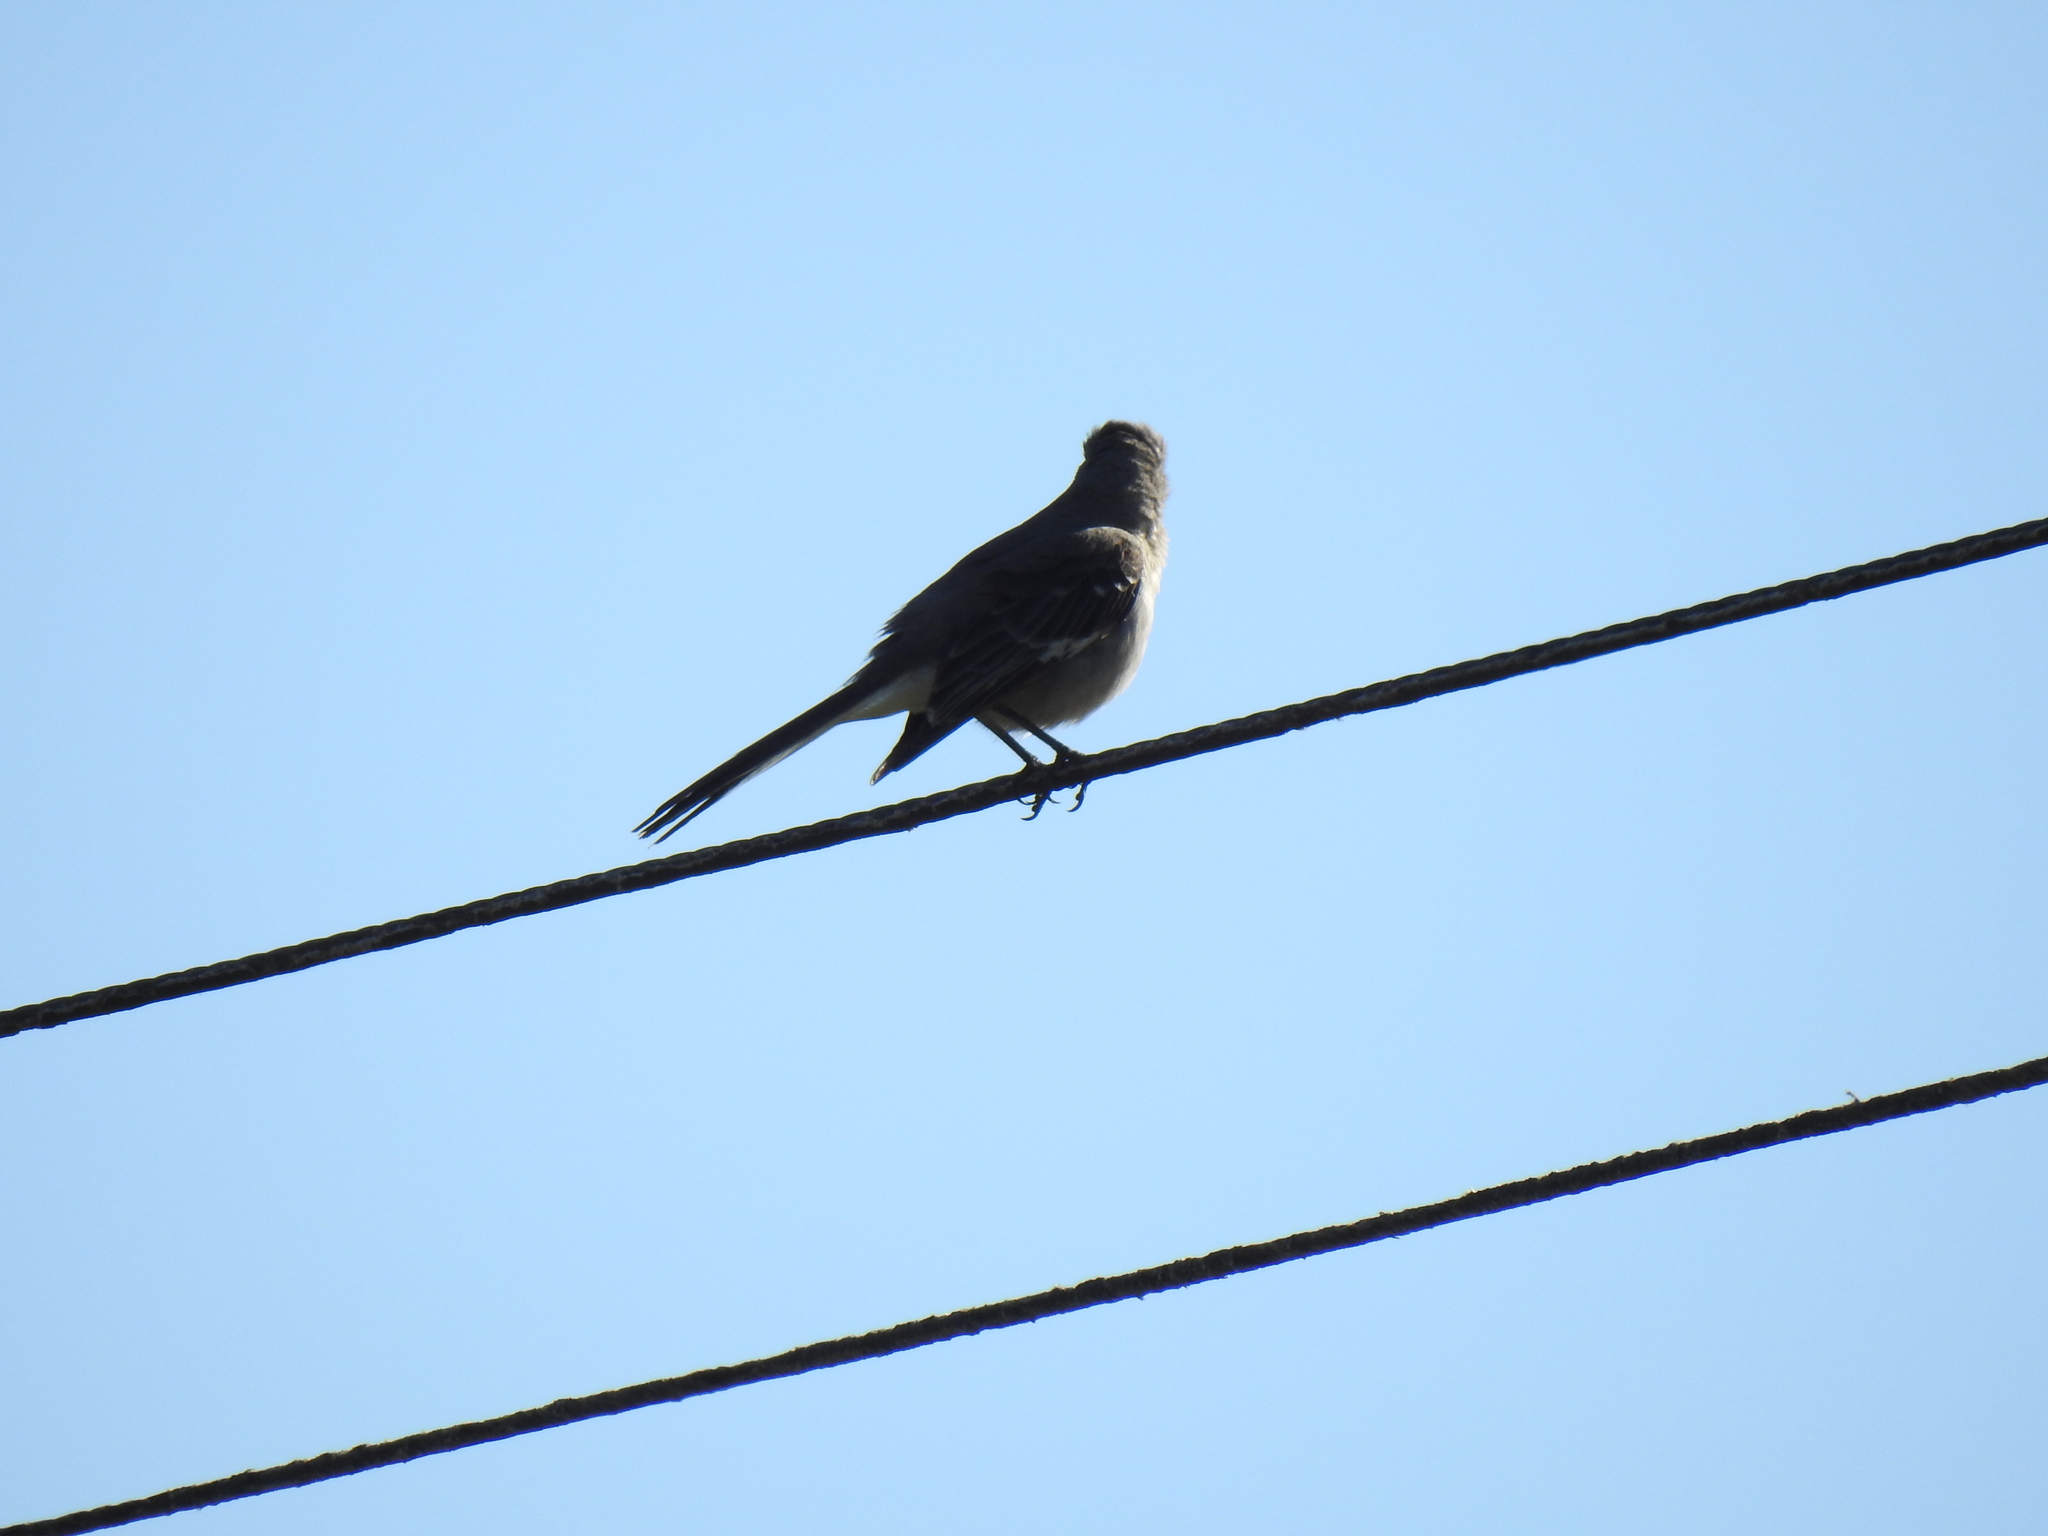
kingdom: Animalia
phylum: Chordata
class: Aves
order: Passeriformes
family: Mimidae
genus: Mimus
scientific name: Mimus polyglottos
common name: Northern mockingbird
